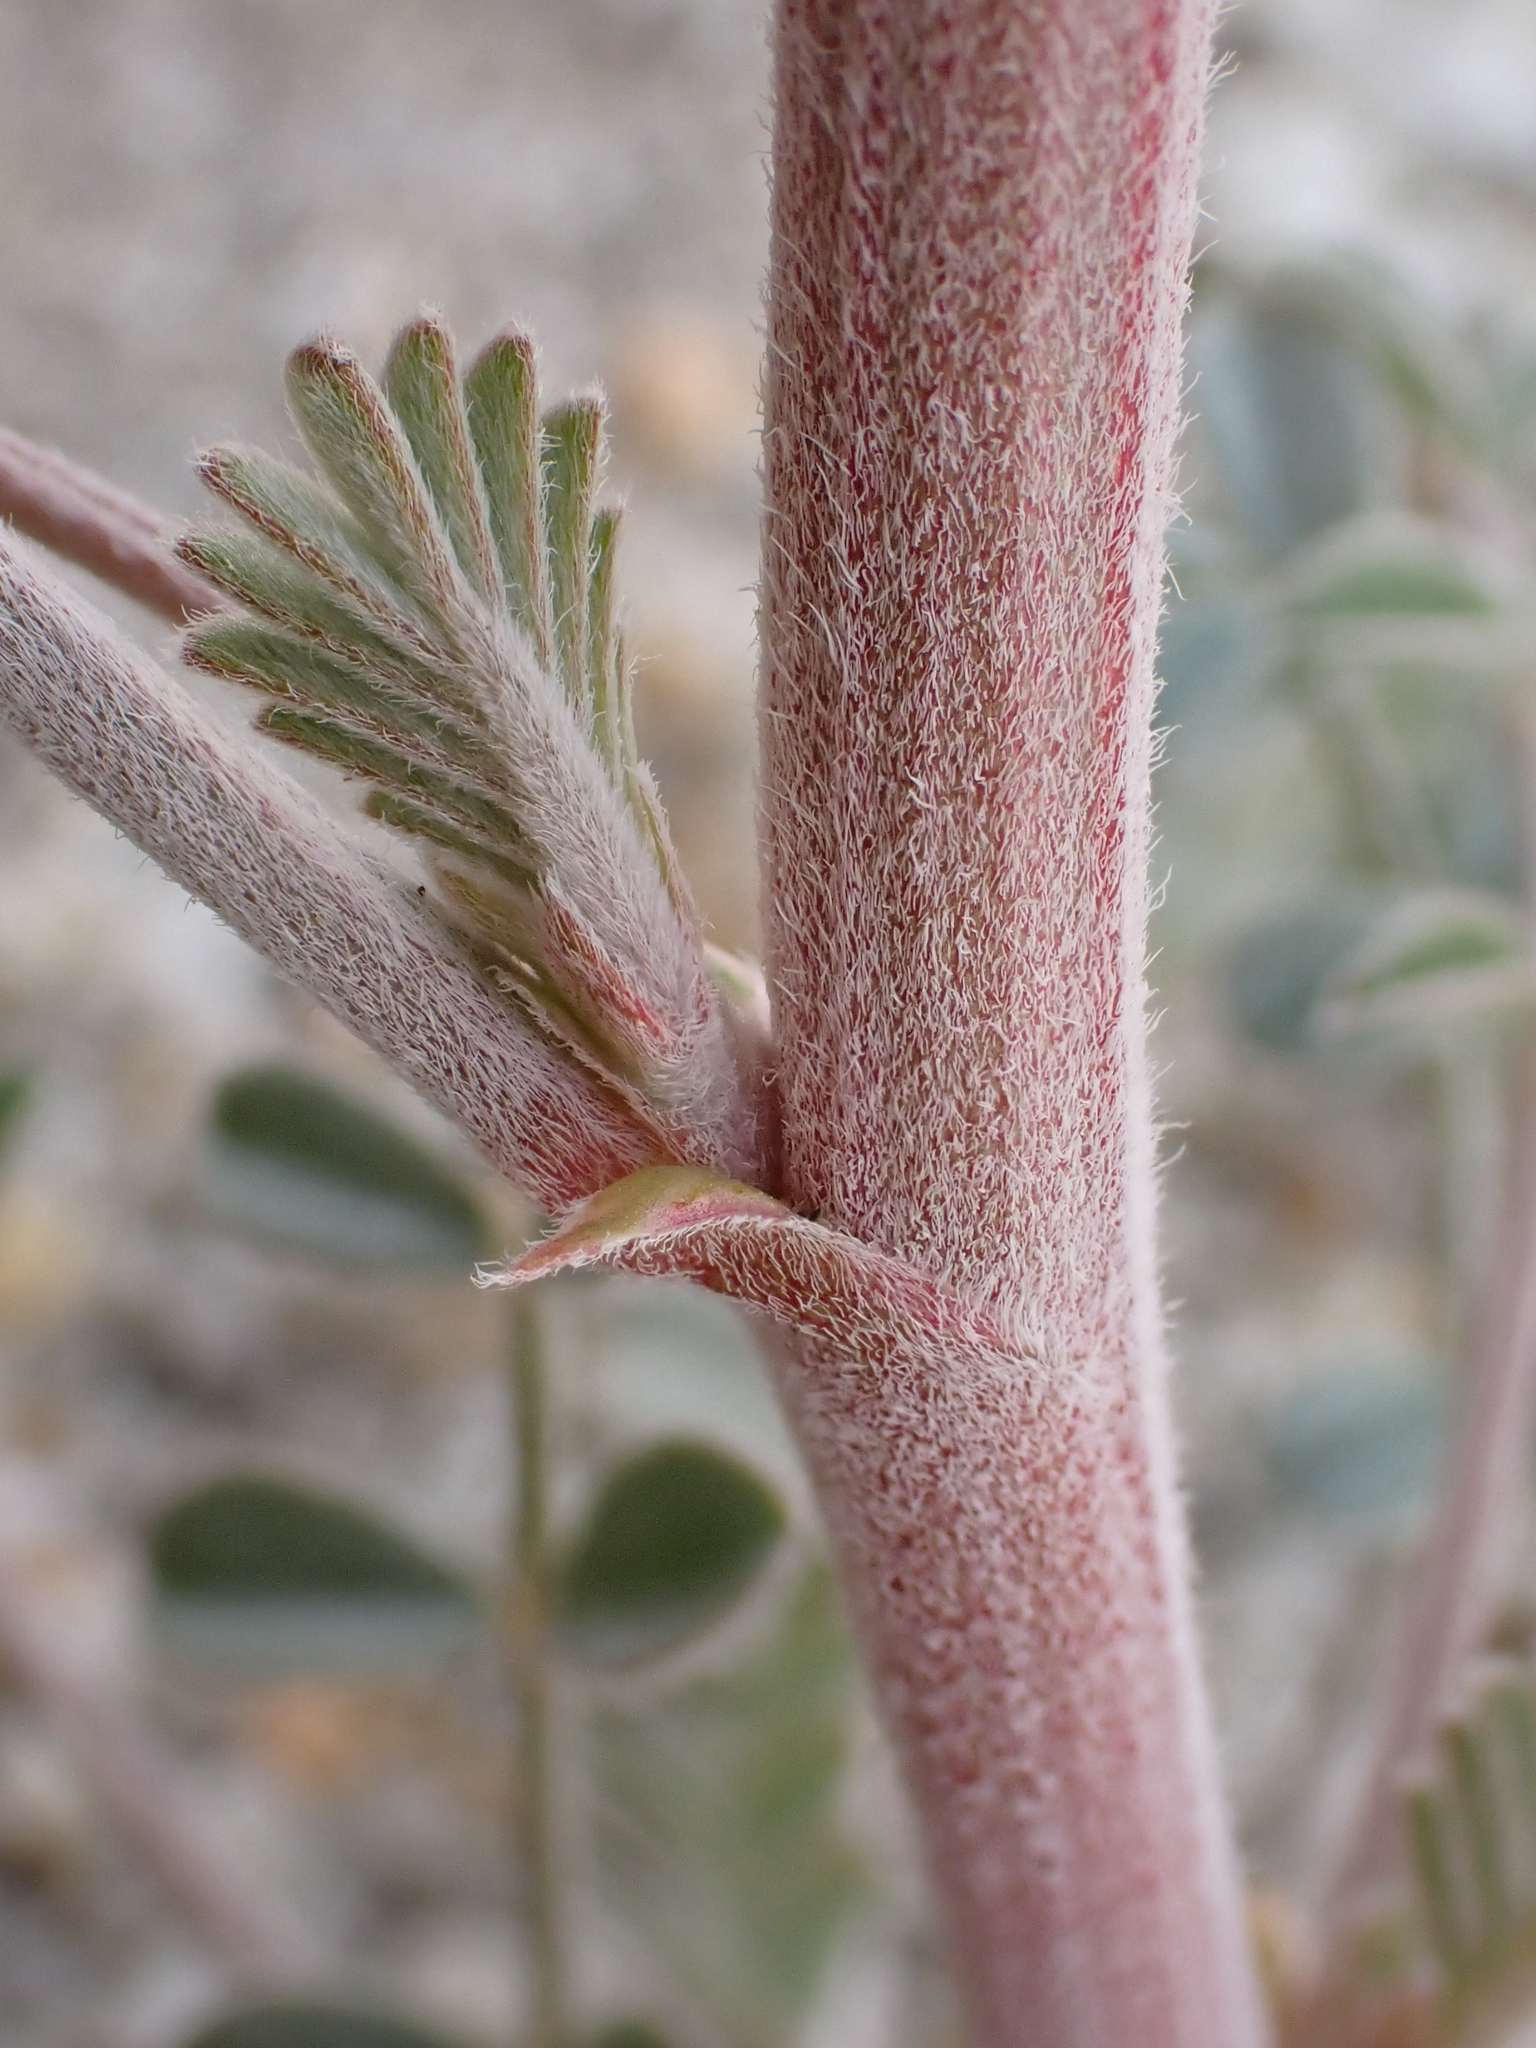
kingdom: Plantae
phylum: Tracheophyta
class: Magnoliopsida
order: Fabales
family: Fabaceae
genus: Astragalus
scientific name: Astragalus lentiginosus
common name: Freckled milkvetch
